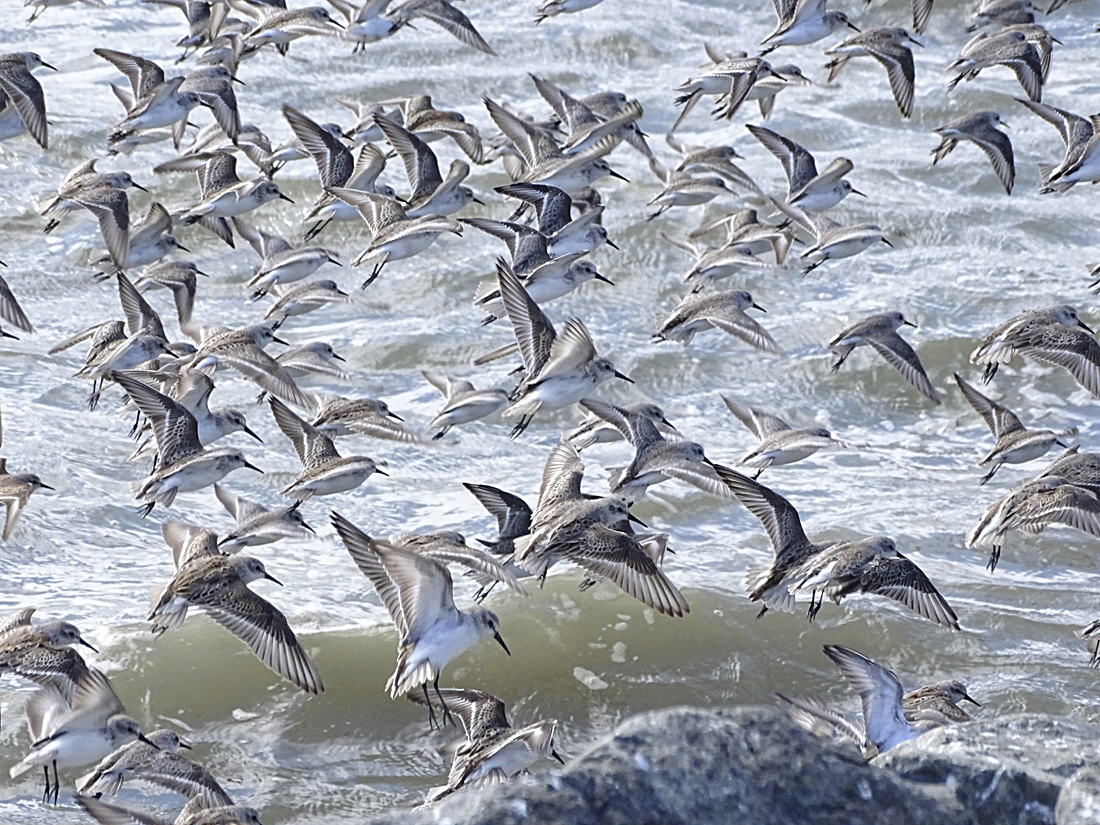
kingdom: Animalia
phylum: Chordata
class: Aves
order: Charadriiformes
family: Scolopacidae
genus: Calidris
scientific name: Calidris mauri
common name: Western sandpiper
